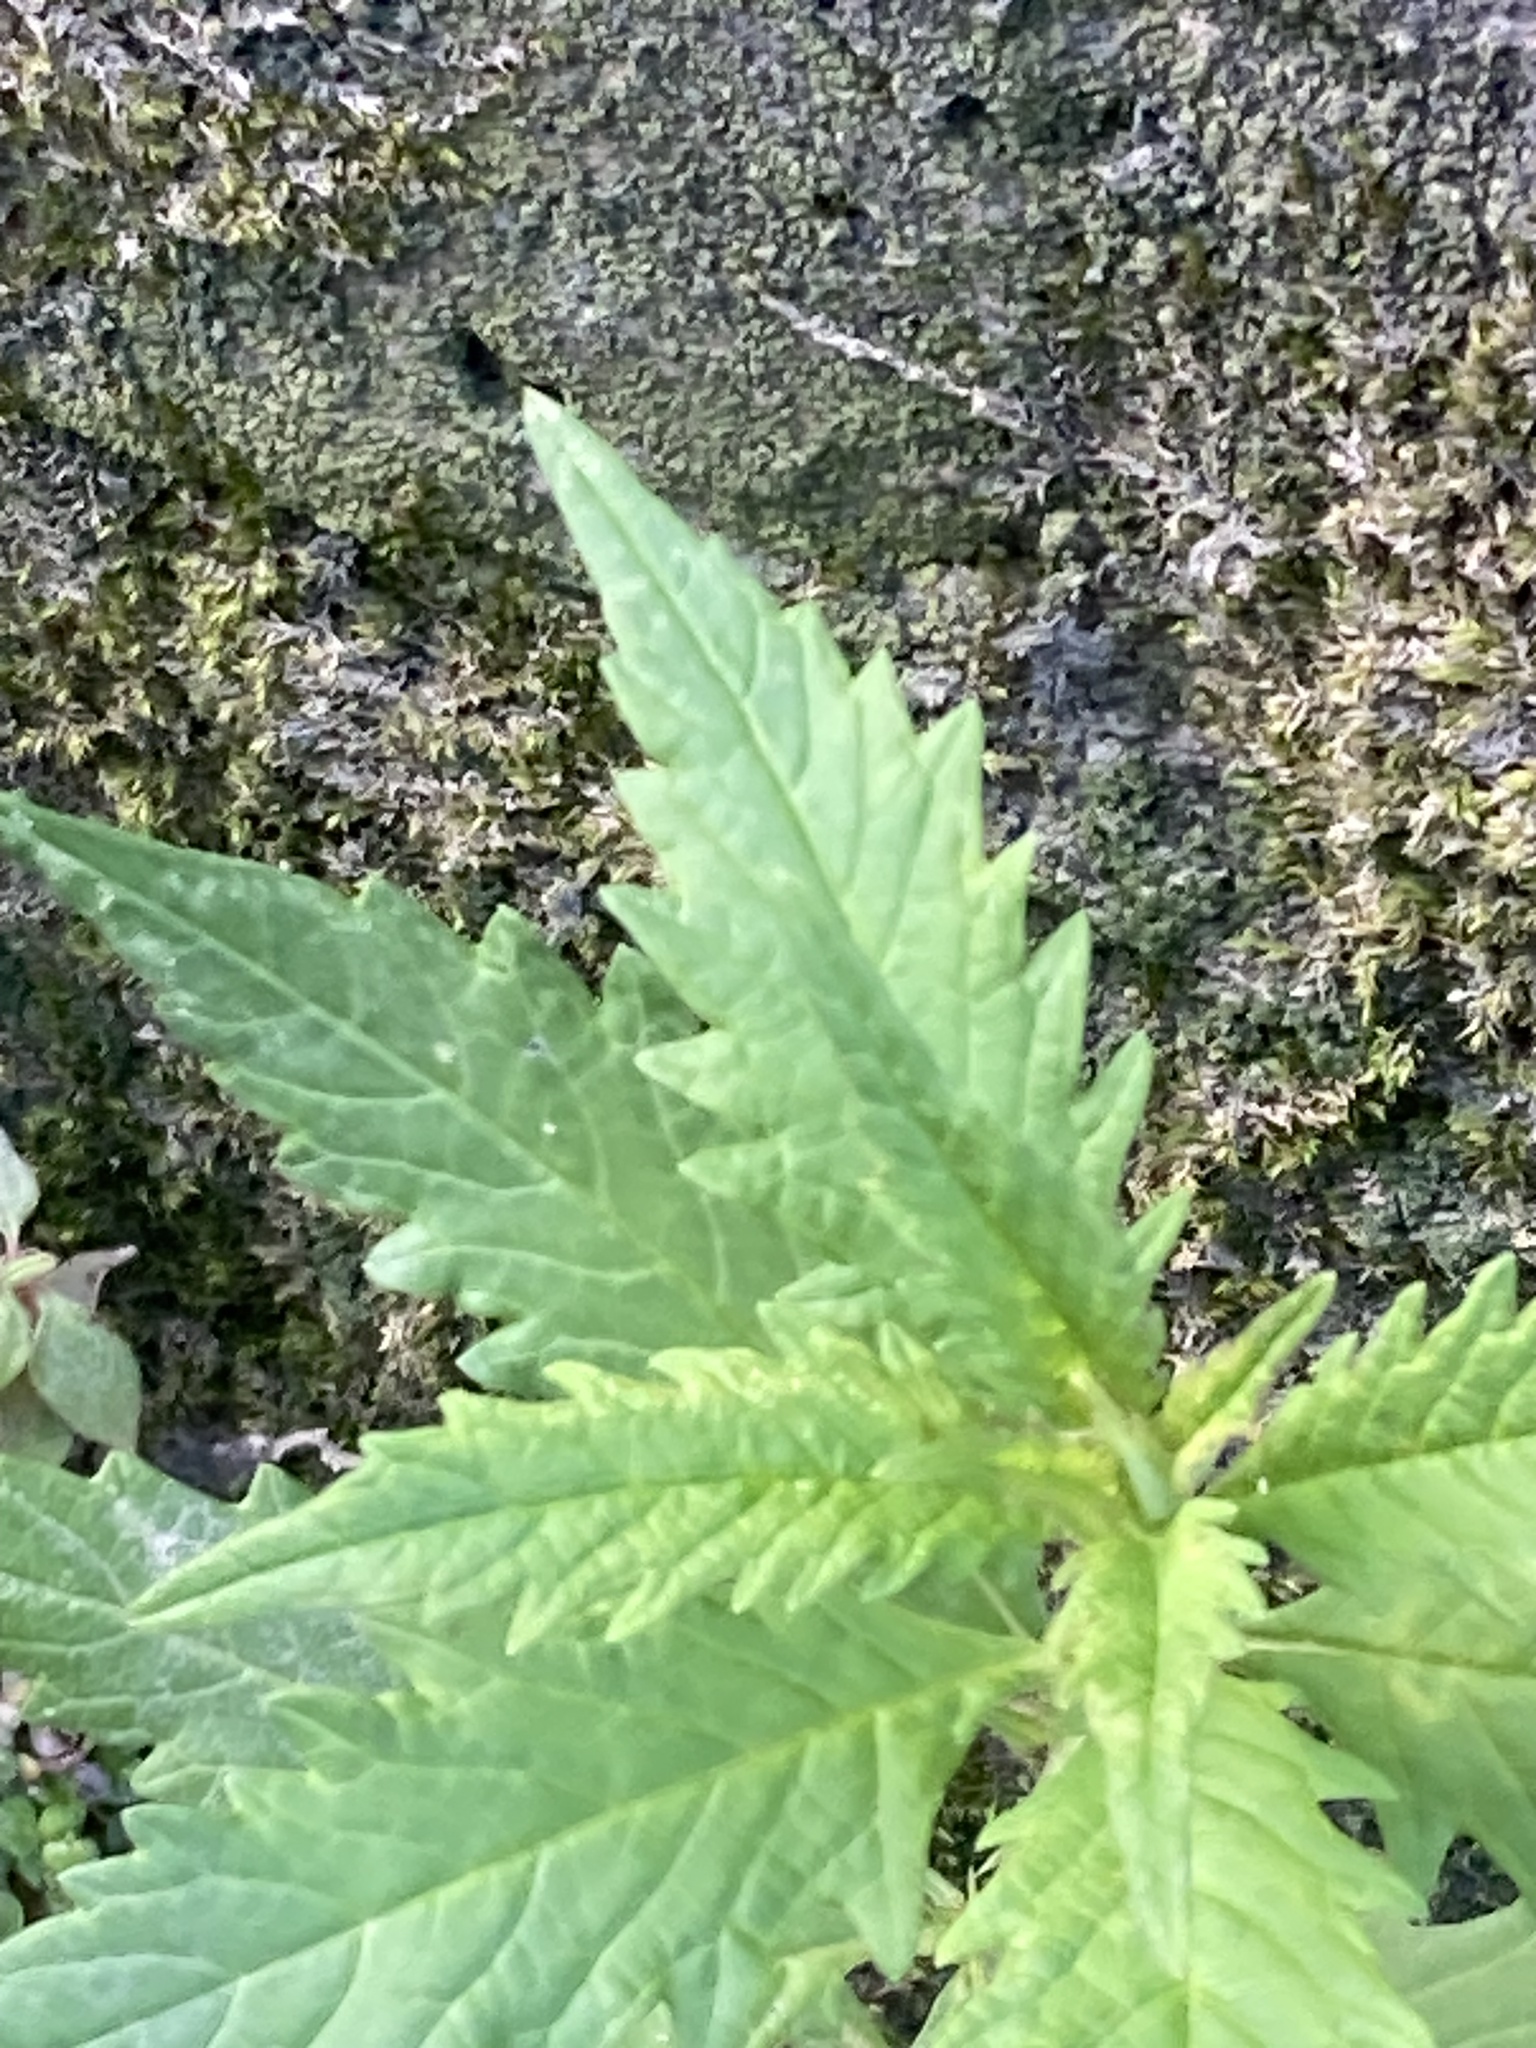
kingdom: Plantae
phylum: Tracheophyta
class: Magnoliopsida
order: Lamiales
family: Lamiaceae
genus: Lycopus
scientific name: Lycopus europaeus
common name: European bugleweed
